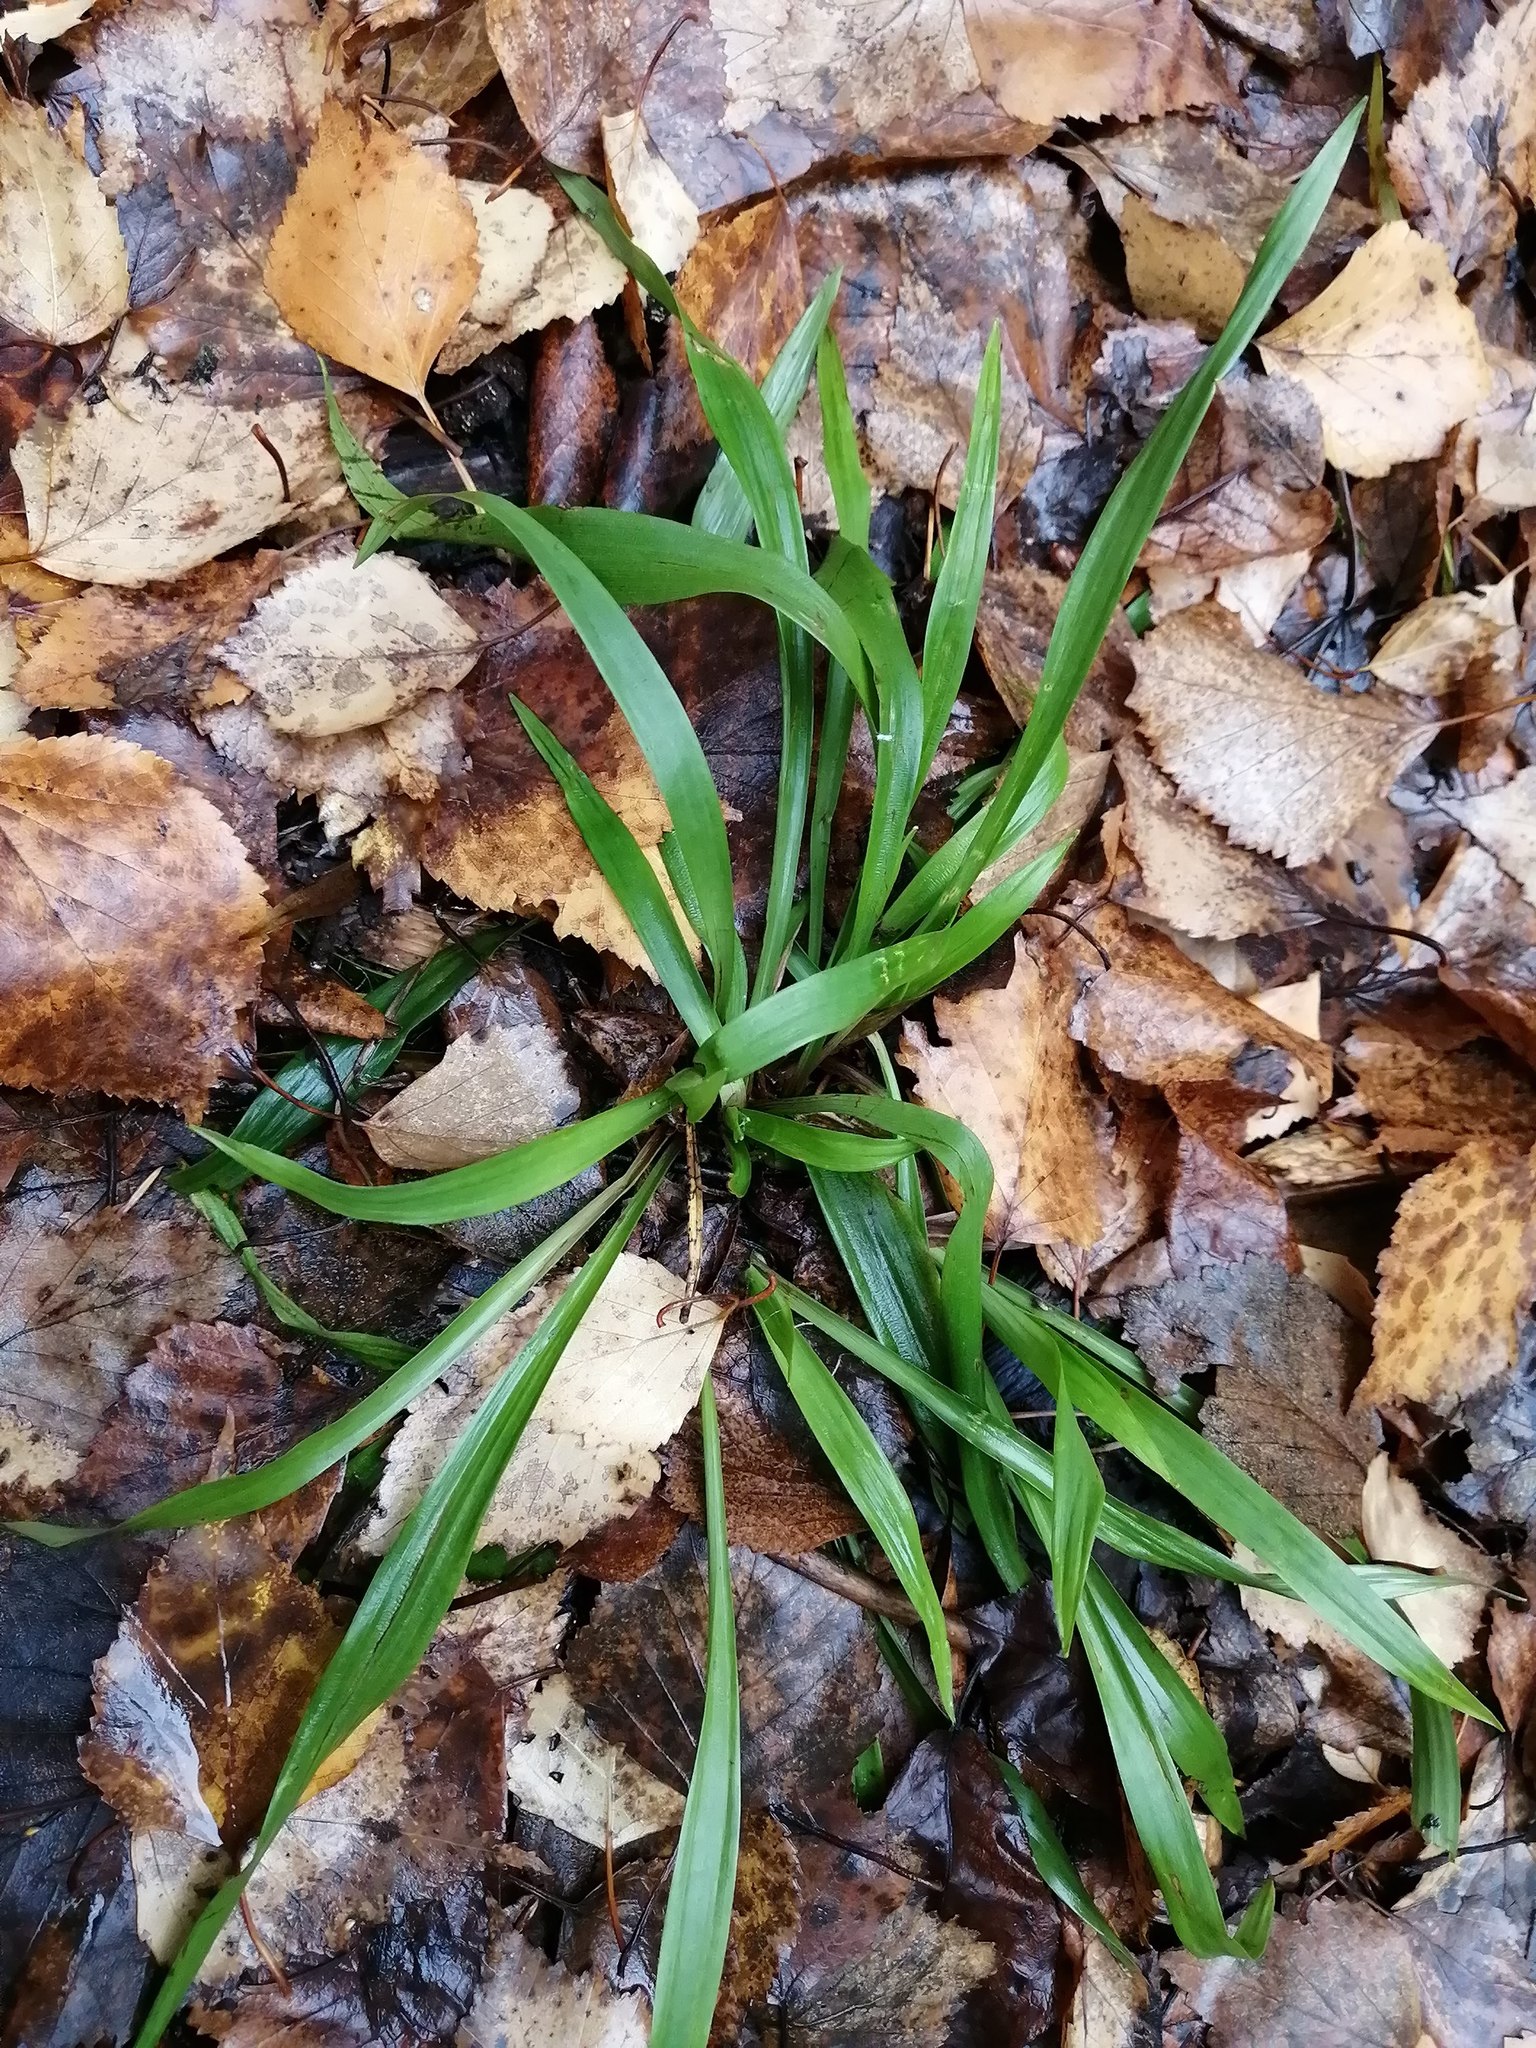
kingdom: Plantae
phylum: Tracheophyta
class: Liliopsida
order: Poales
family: Juncaceae
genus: Luzula
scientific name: Luzula pilosa
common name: Hairy wood-rush
